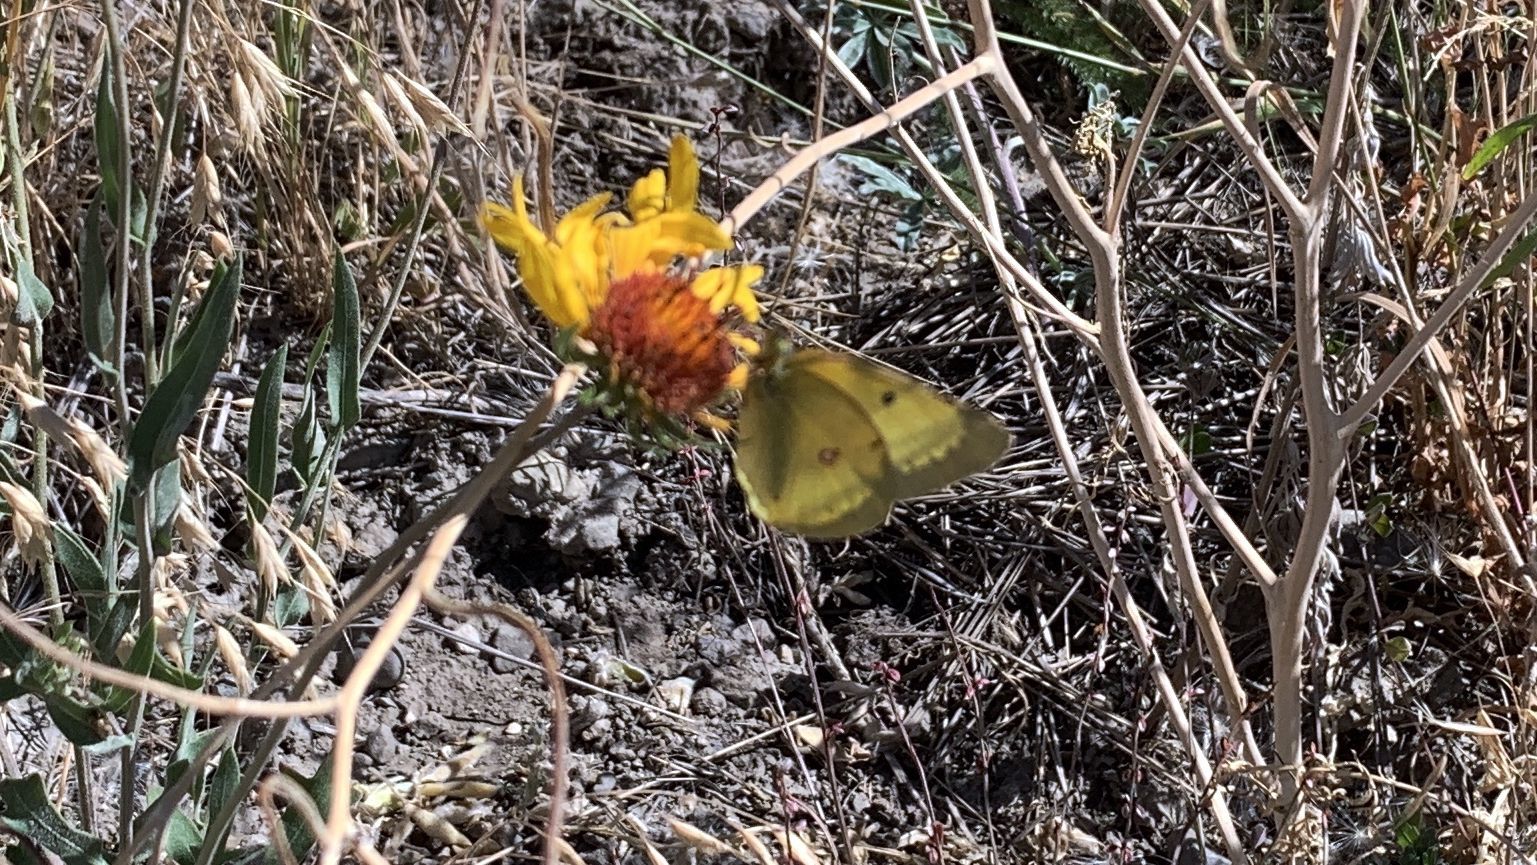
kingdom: Animalia
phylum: Arthropoda
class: Insecta
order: Lepidoptera
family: Pieridae
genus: Colias
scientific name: Colias philodice
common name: Clouded sulphur
